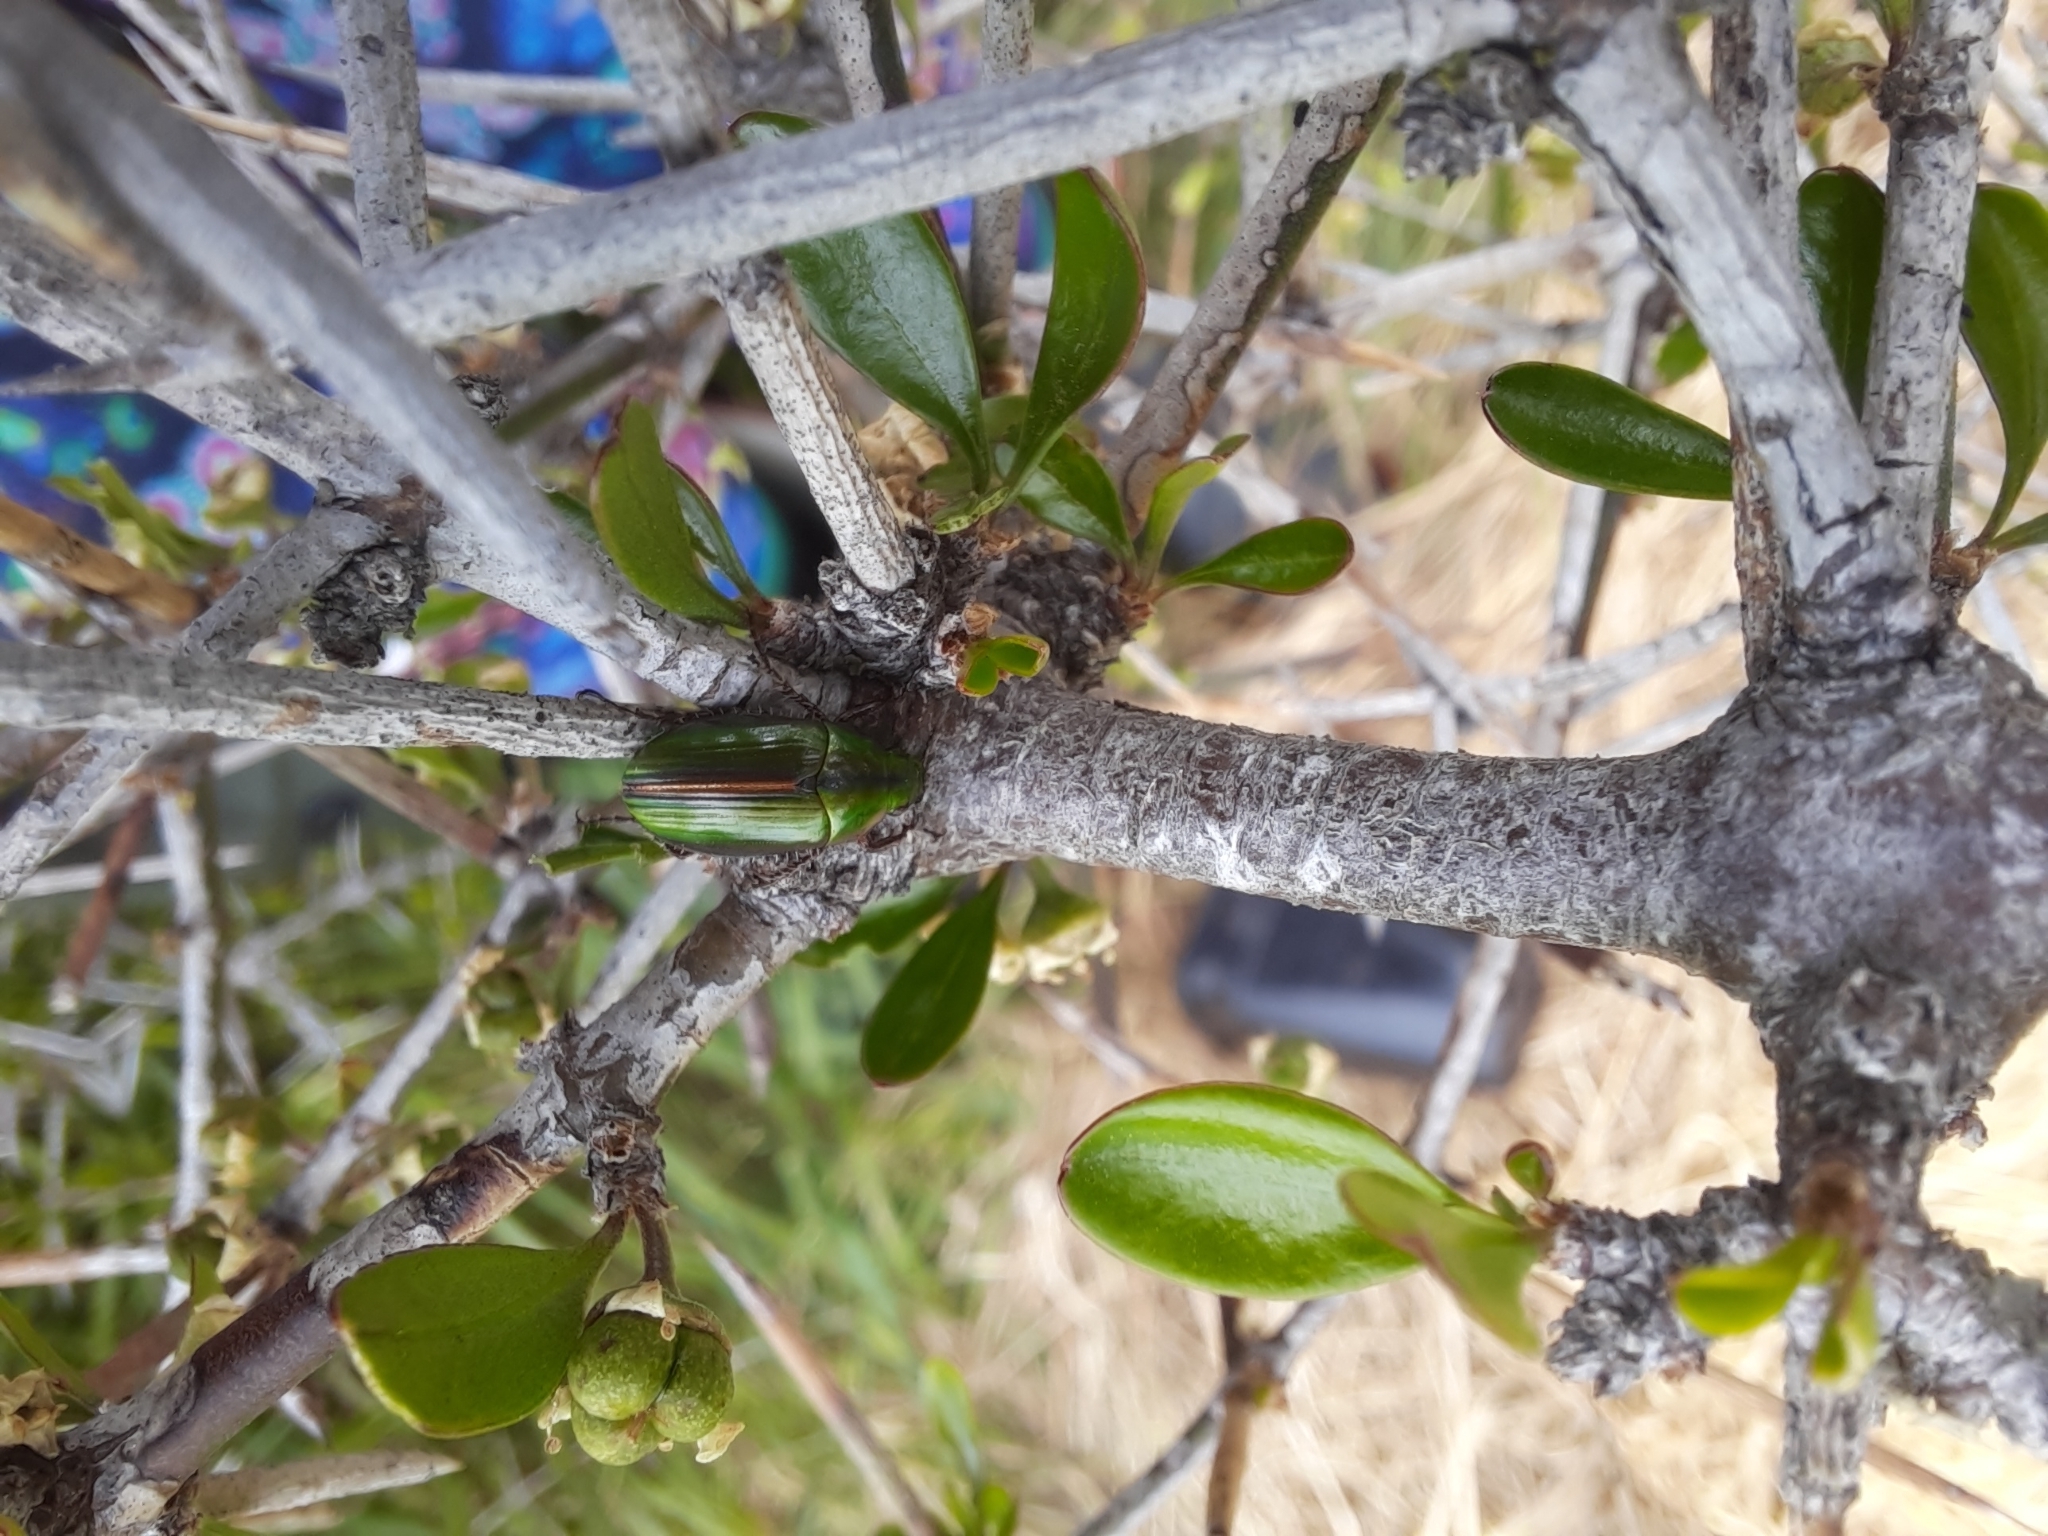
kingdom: Animalia
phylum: Arthropoda
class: Insecta
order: Coleoptera
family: Scarabaeidae
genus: Pyronota
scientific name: Pyronota edwardsi
